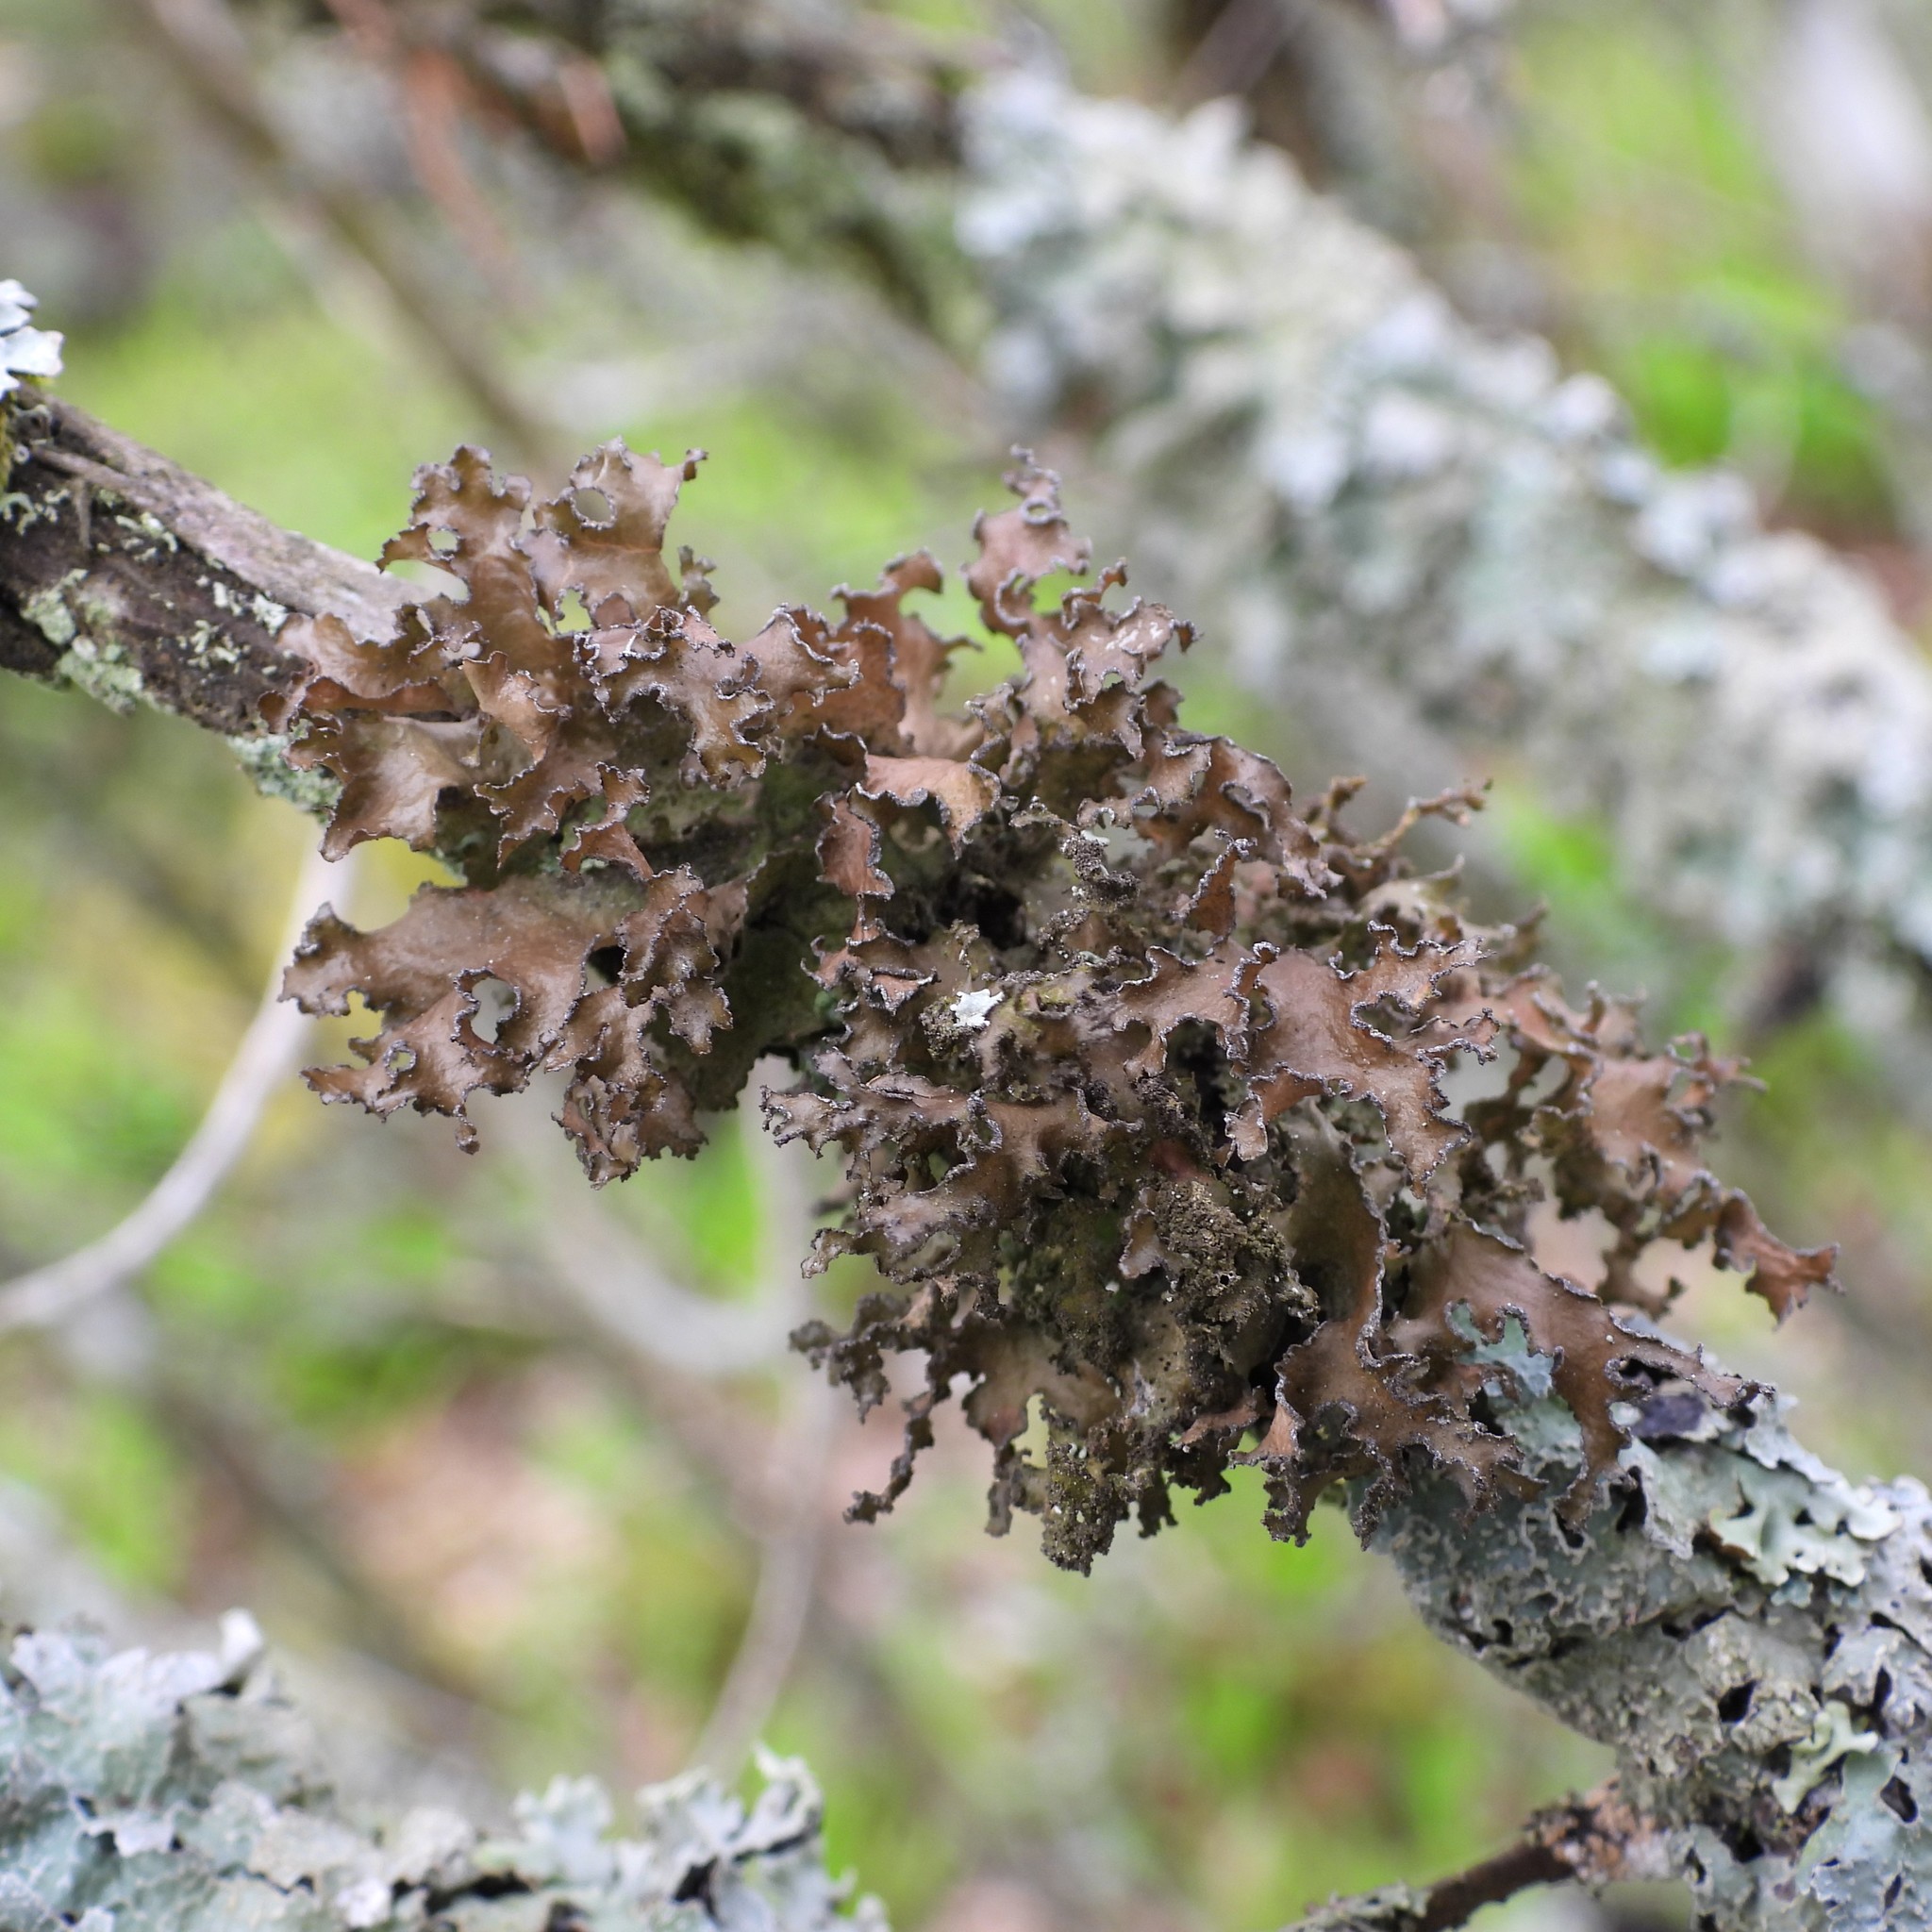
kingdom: Fungi
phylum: Ascomycota
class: Lecanoromycetes
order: Lecanorales
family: Parmeliaceae
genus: Nephromopsis
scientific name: Nephromopsis chlorophylla
